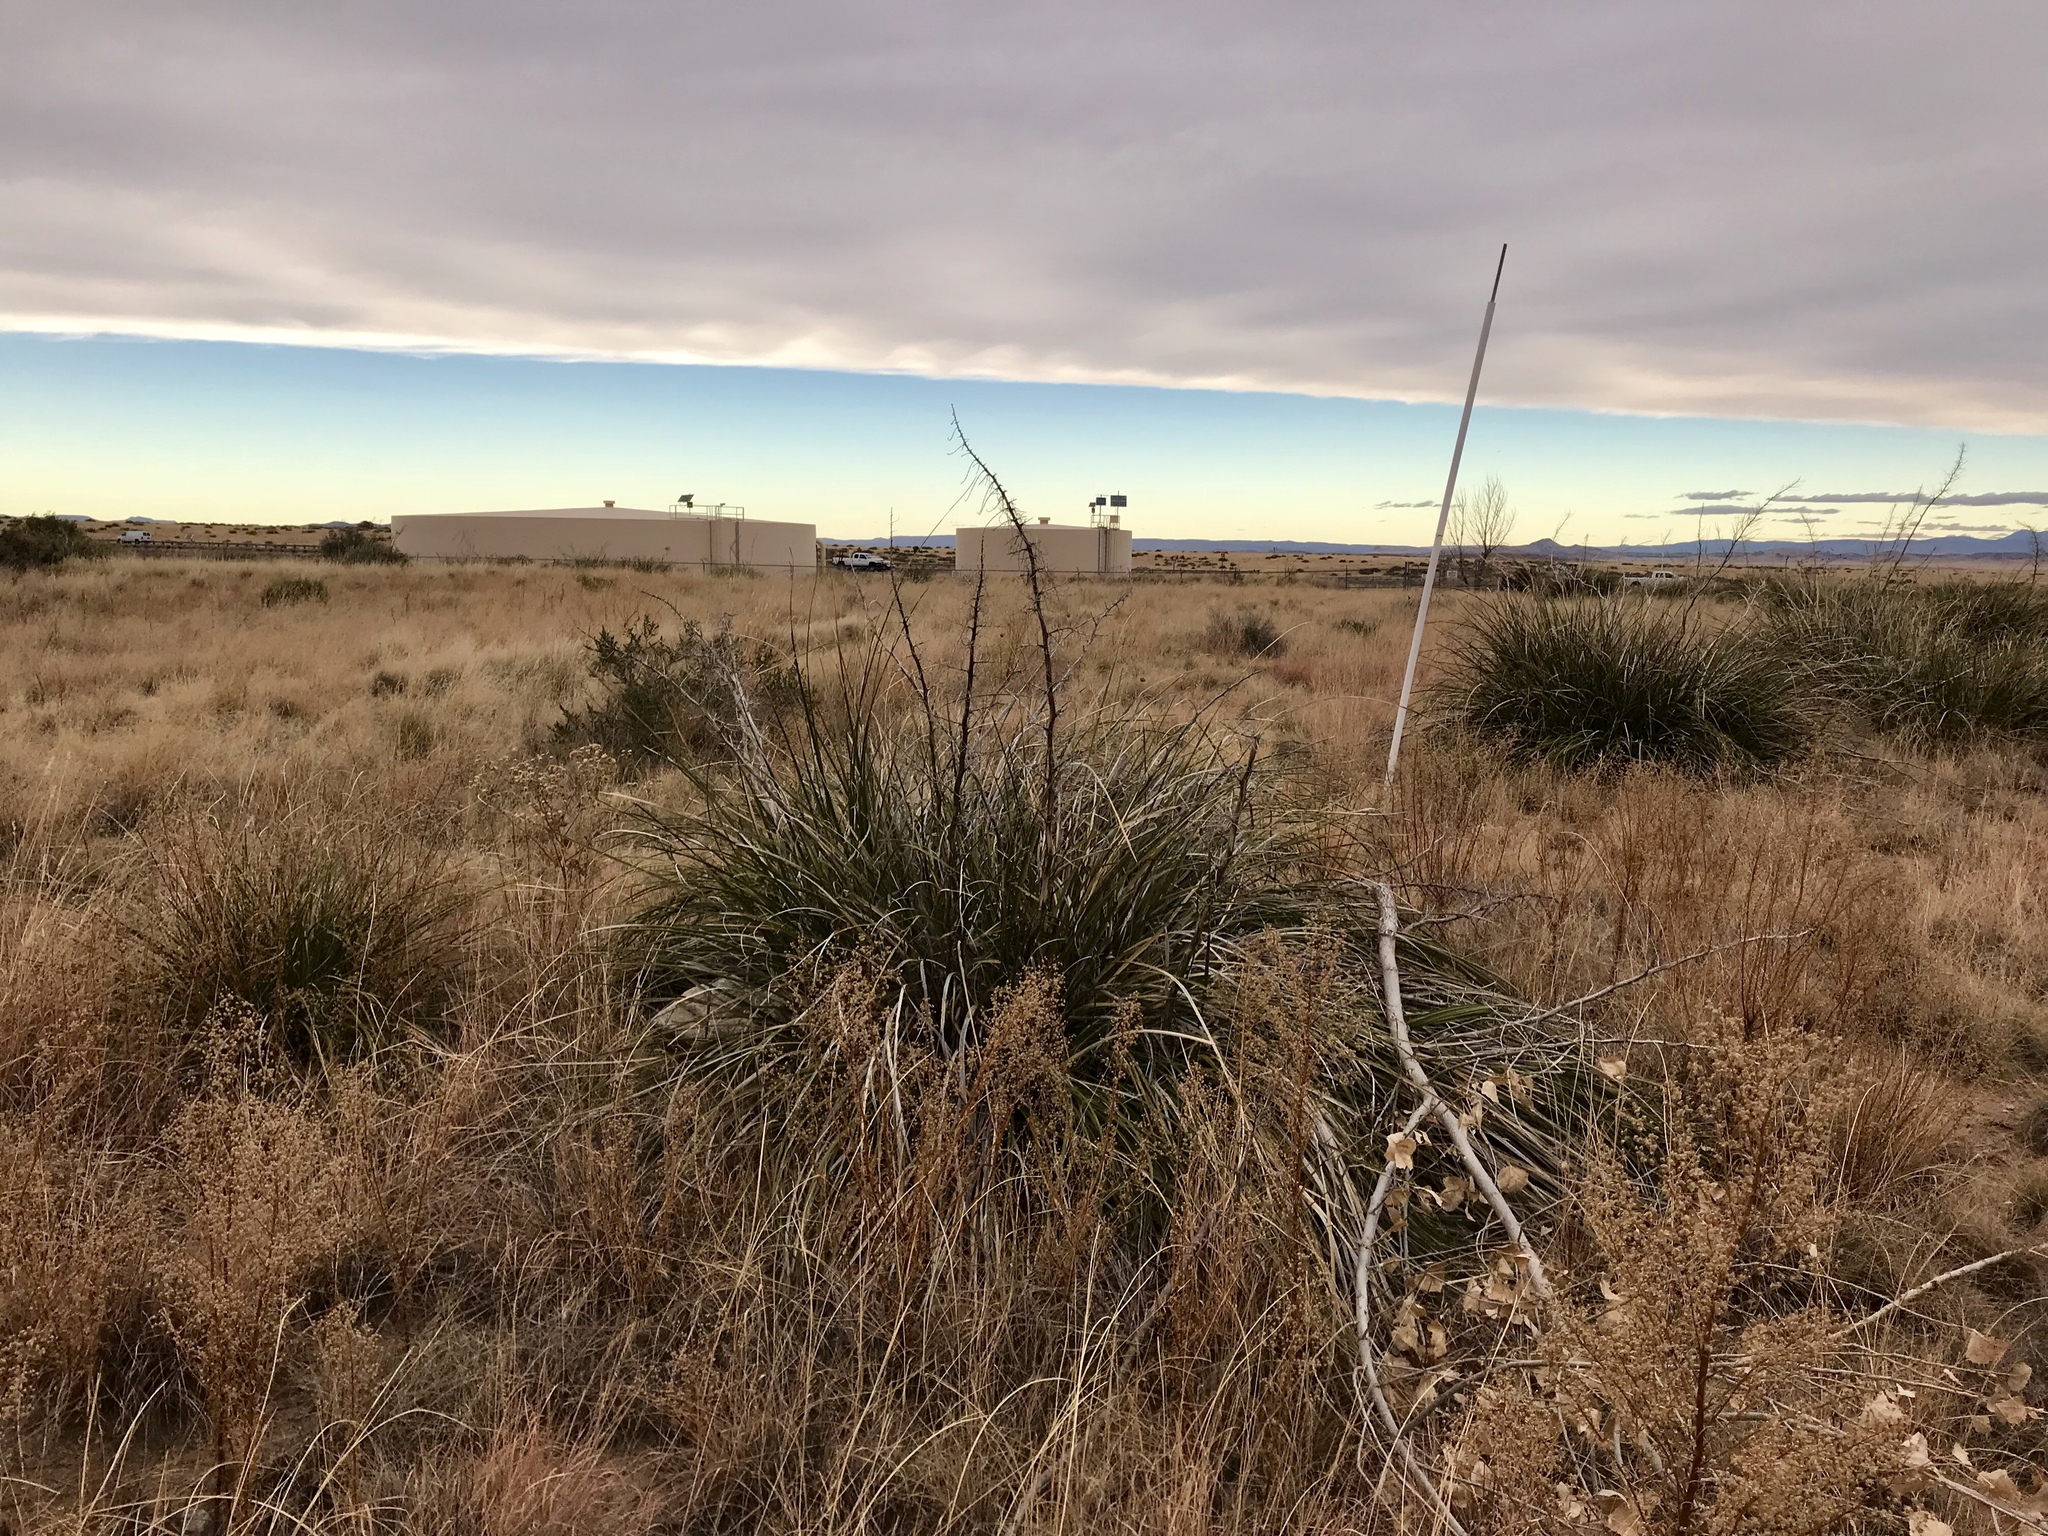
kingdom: Plantae
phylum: Tracheophyta
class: Liliopsida
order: Asparagales
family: Asparagaceae
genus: Nolina
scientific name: Nolina microcarpa
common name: Bear-grass
